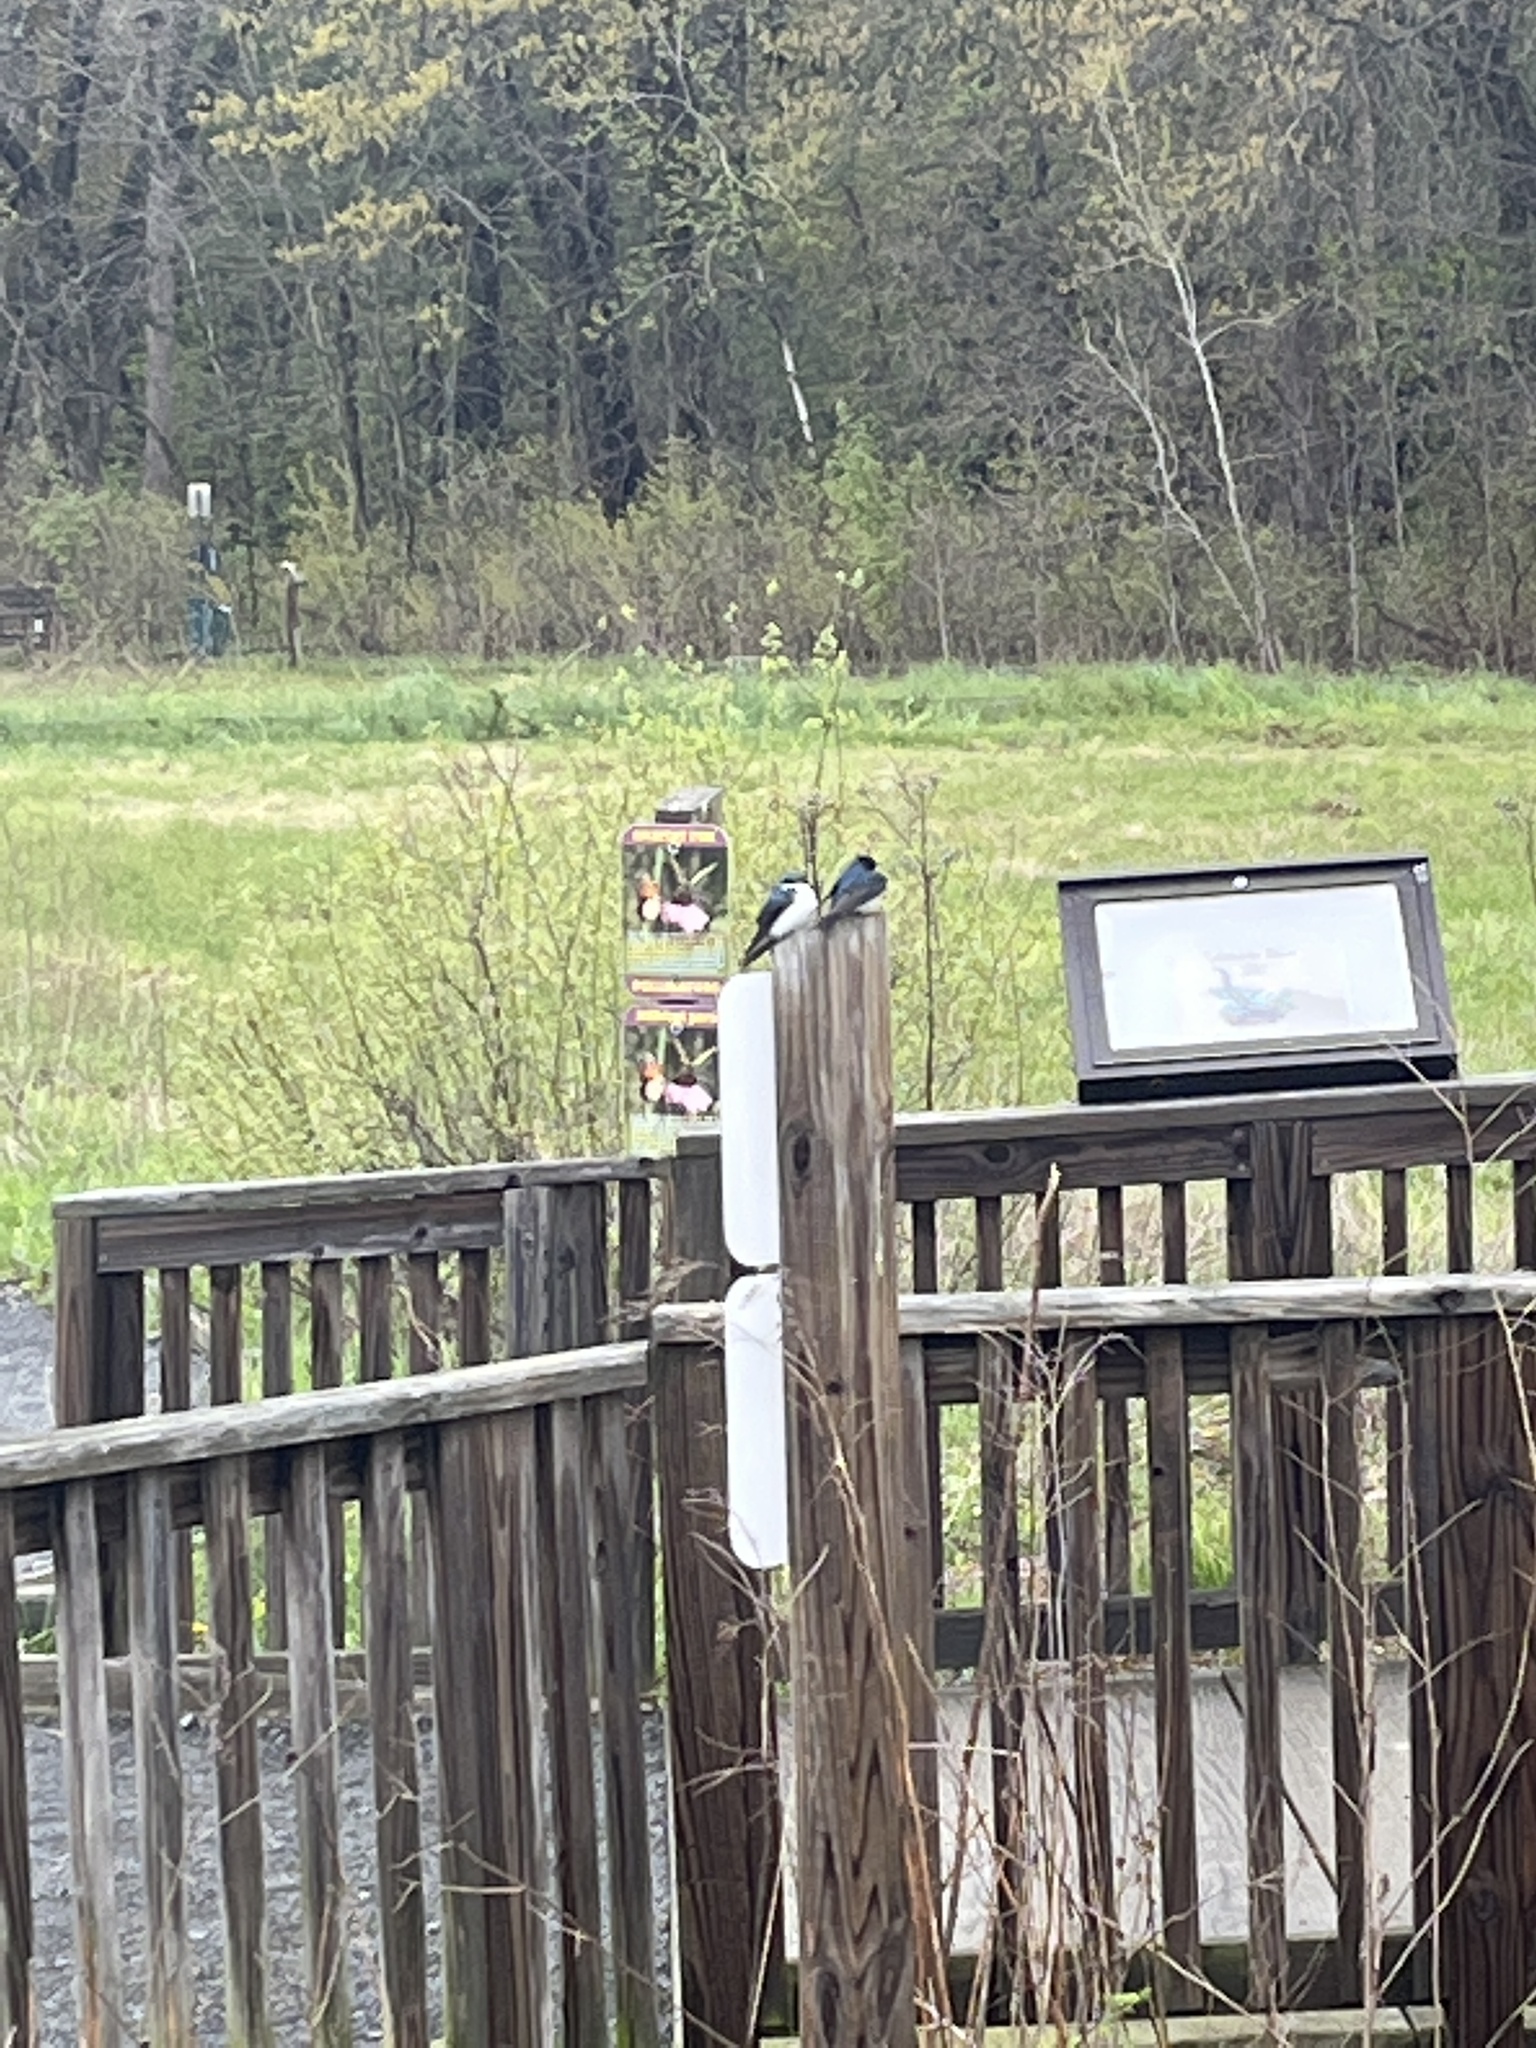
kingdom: Animalia
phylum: Chordata
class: Aves
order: Passeriformes
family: Hirundinidae
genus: Tachycineta
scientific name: Tachycineta bicolor
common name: Tree swallow
